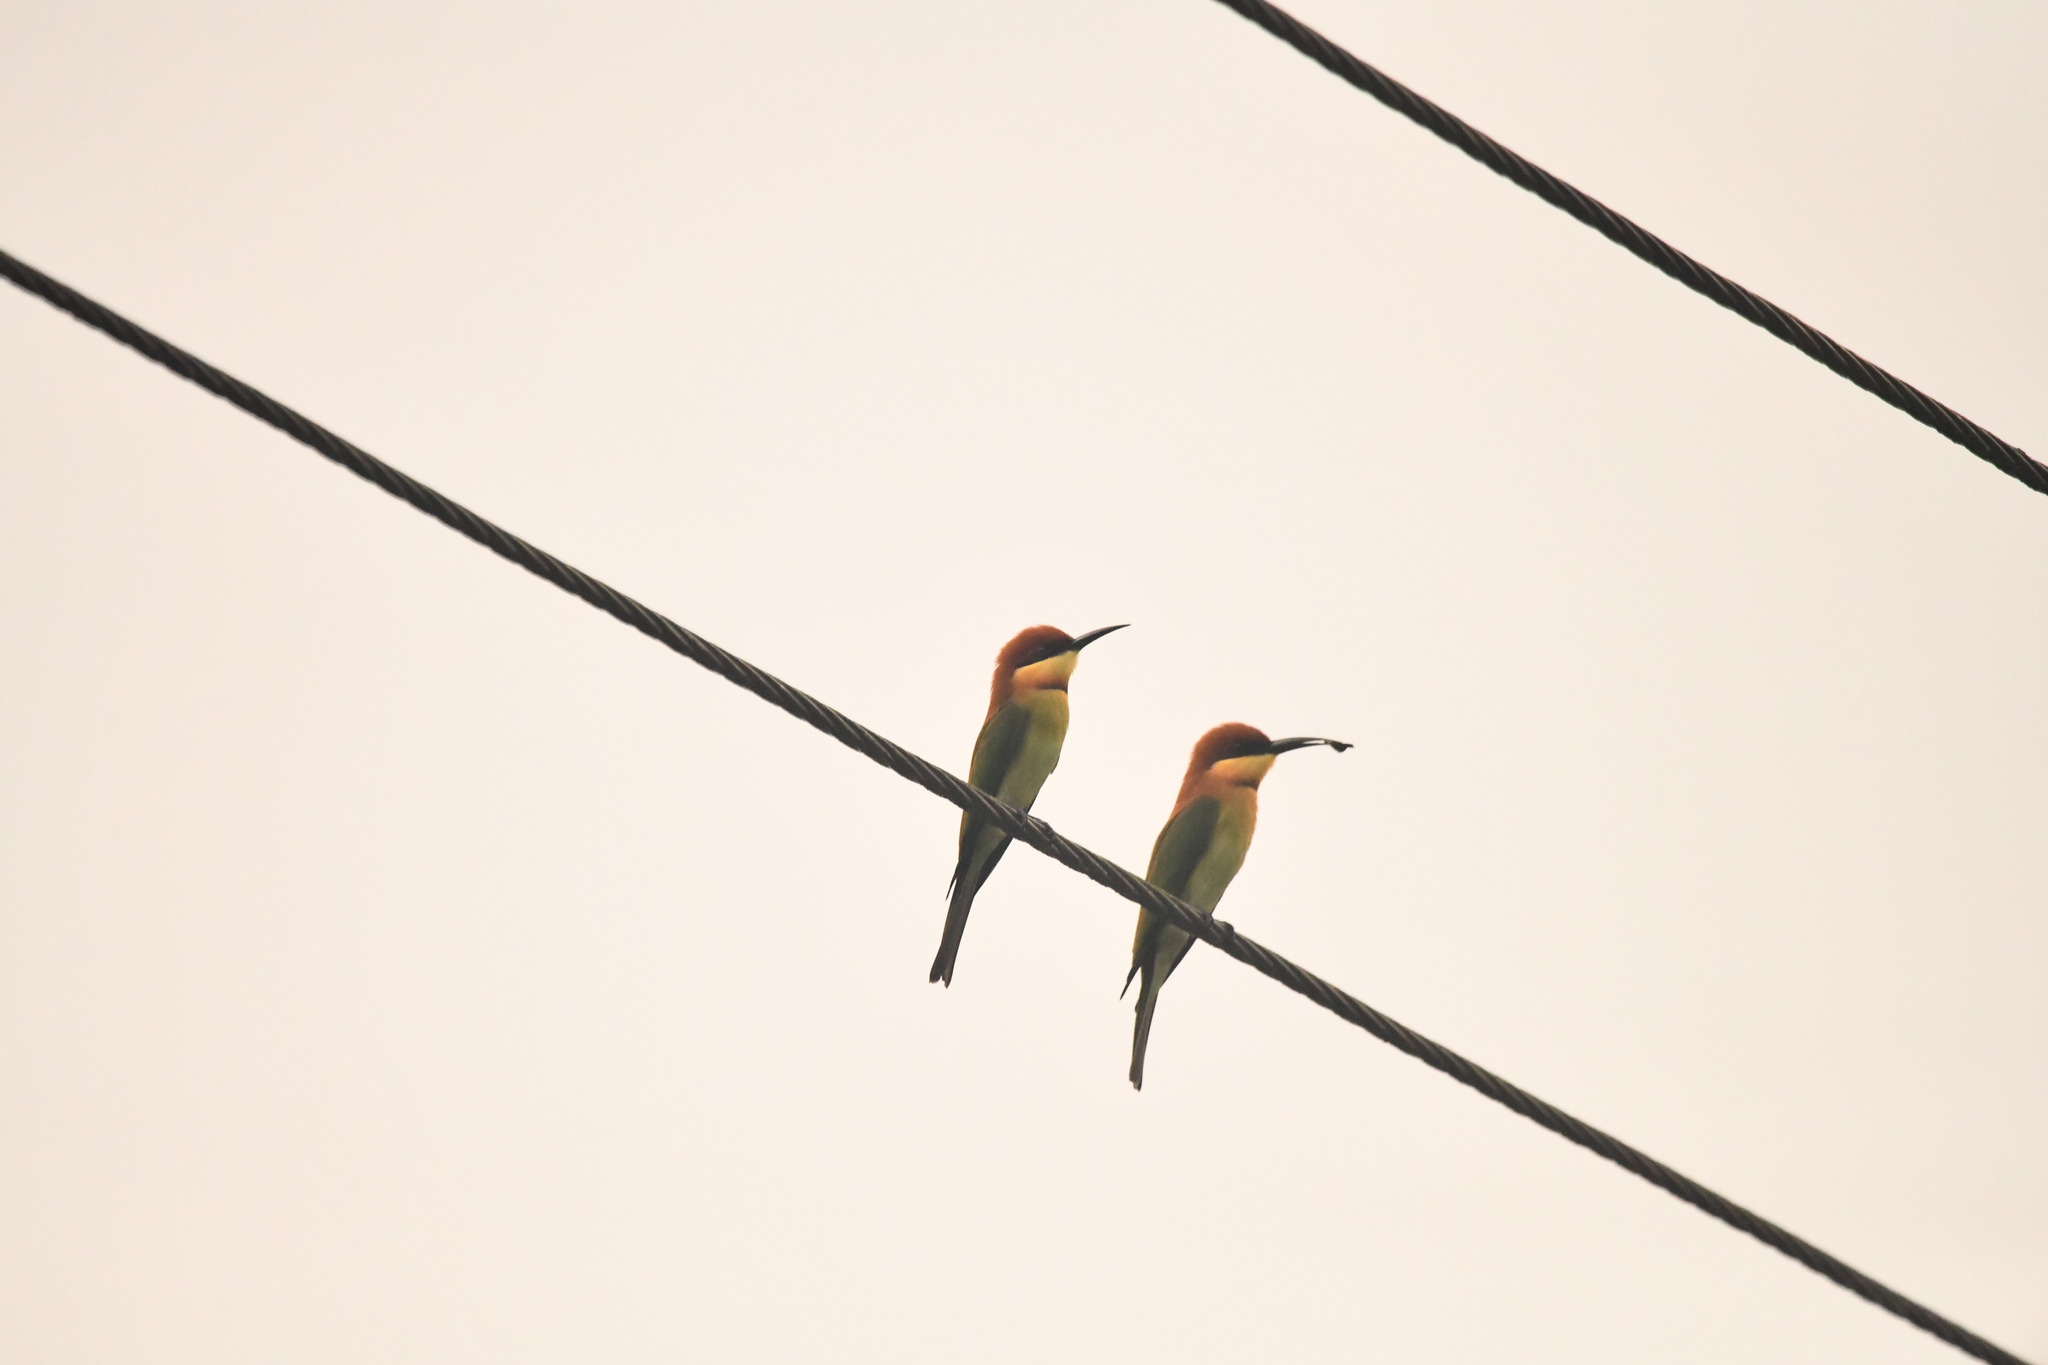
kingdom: Animalia
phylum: Chordata
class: Aves
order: Coraciiformes
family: Meropidae
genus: Merops
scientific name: Merops leschenaulti
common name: Chestnut-headed bee-eater
